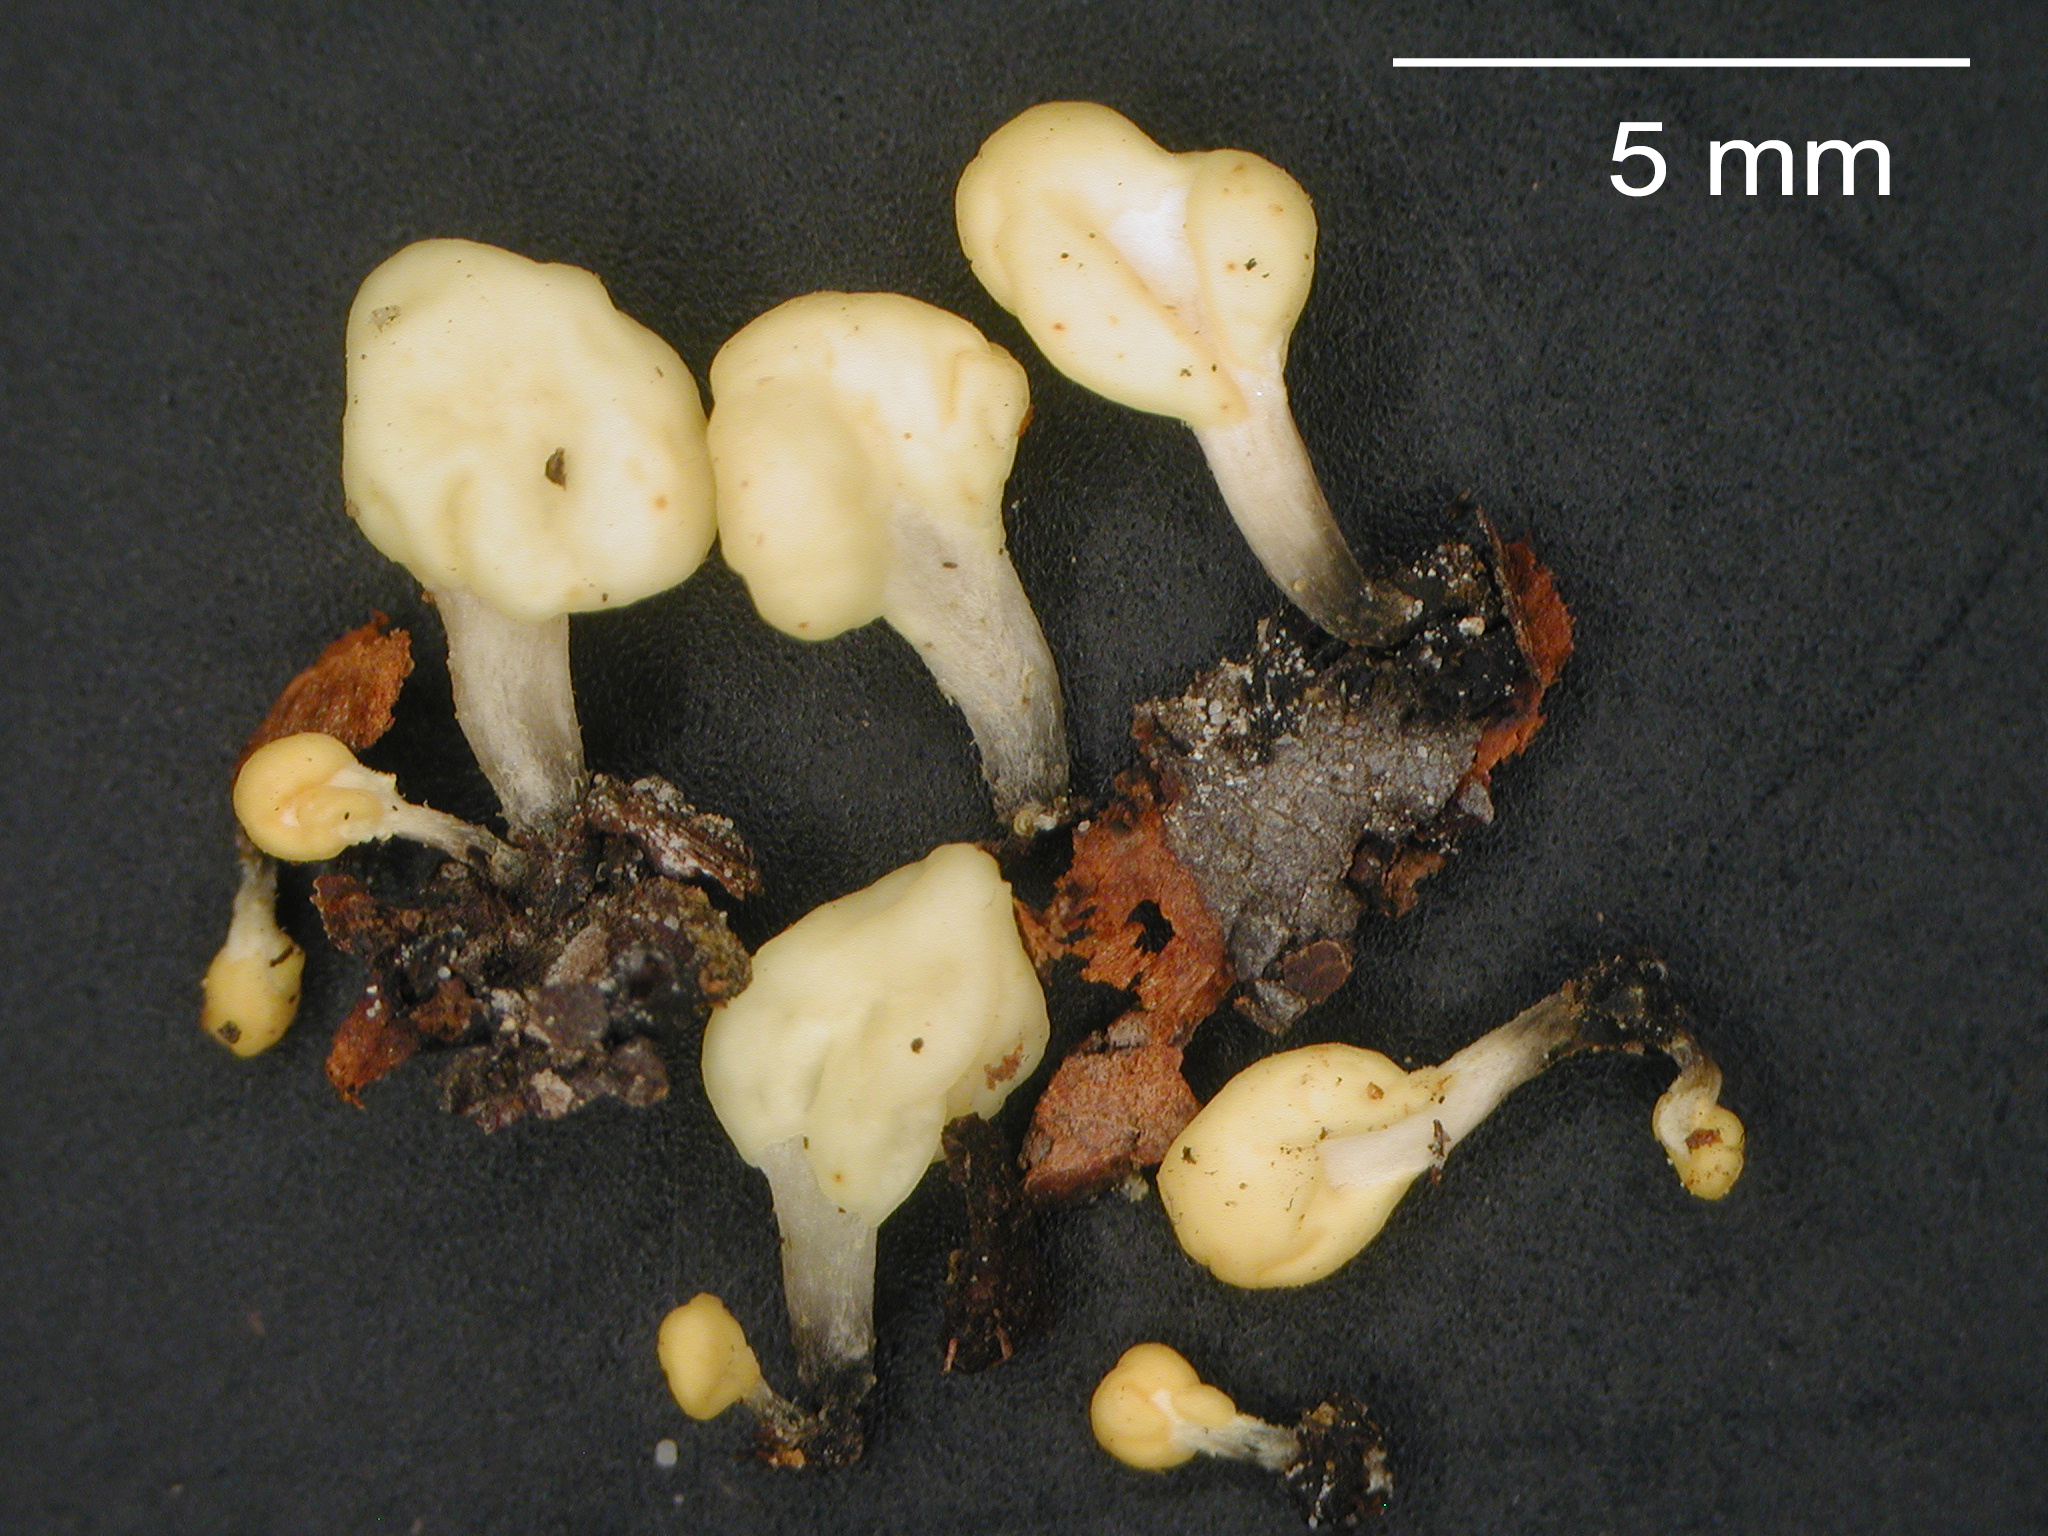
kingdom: Fungi
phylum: Ascomycota
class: Leotiomycetes
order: Helotiales
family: Sclerotiniaceae
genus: Mitrulinia
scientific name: Mitrulinia ushuaiae
